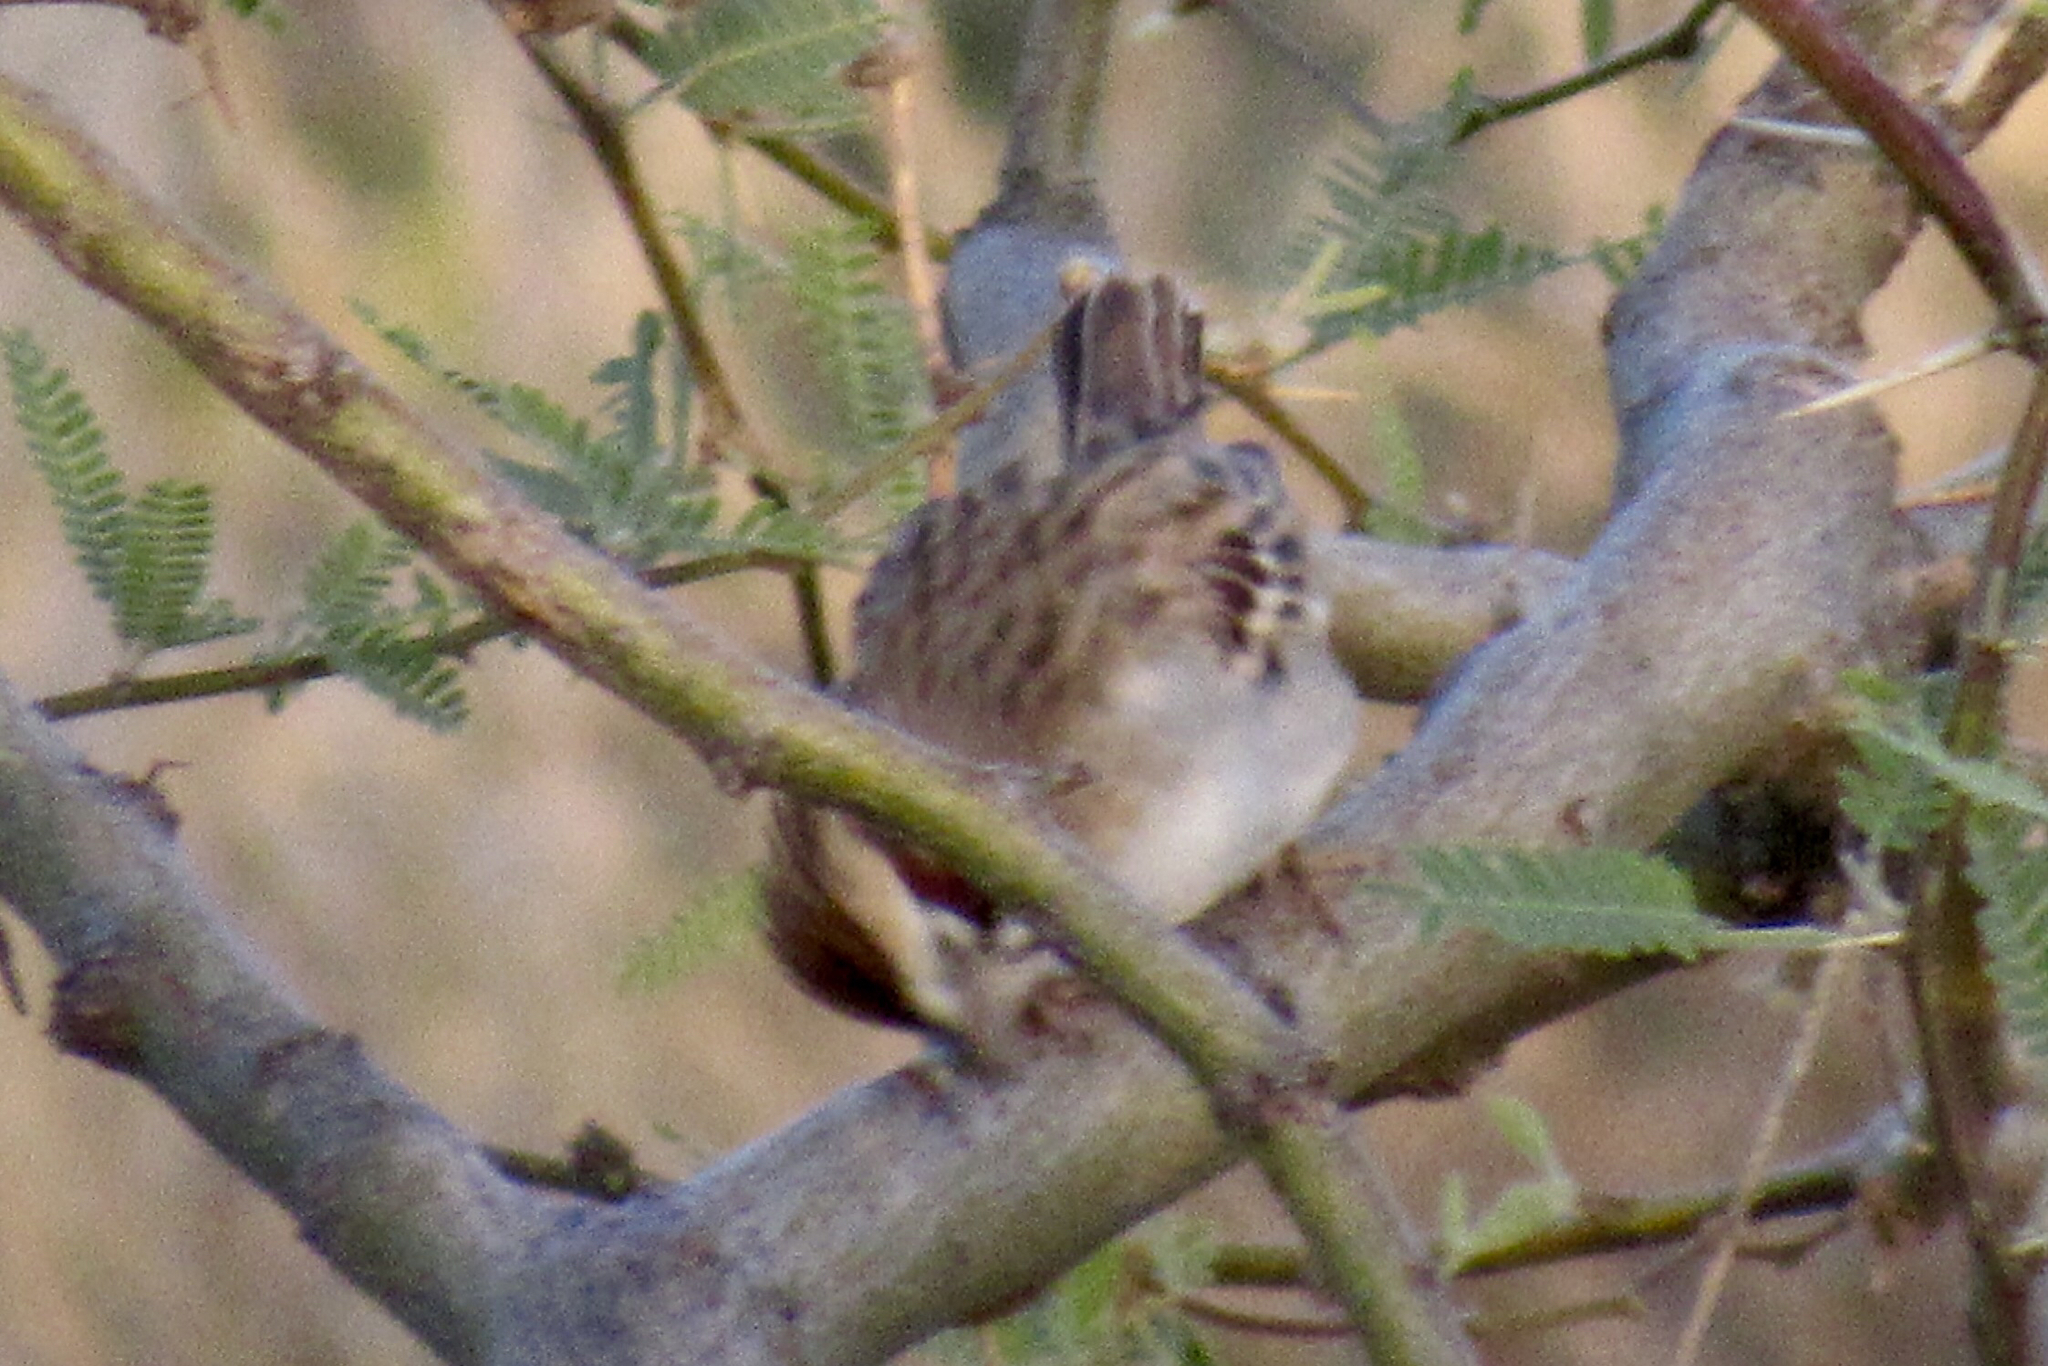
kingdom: Animalia
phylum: Chordata
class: Aves
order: Passeriformes
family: Passerellidae
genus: Chondestes
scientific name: Chondestes grammacus
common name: Lark sparrow
